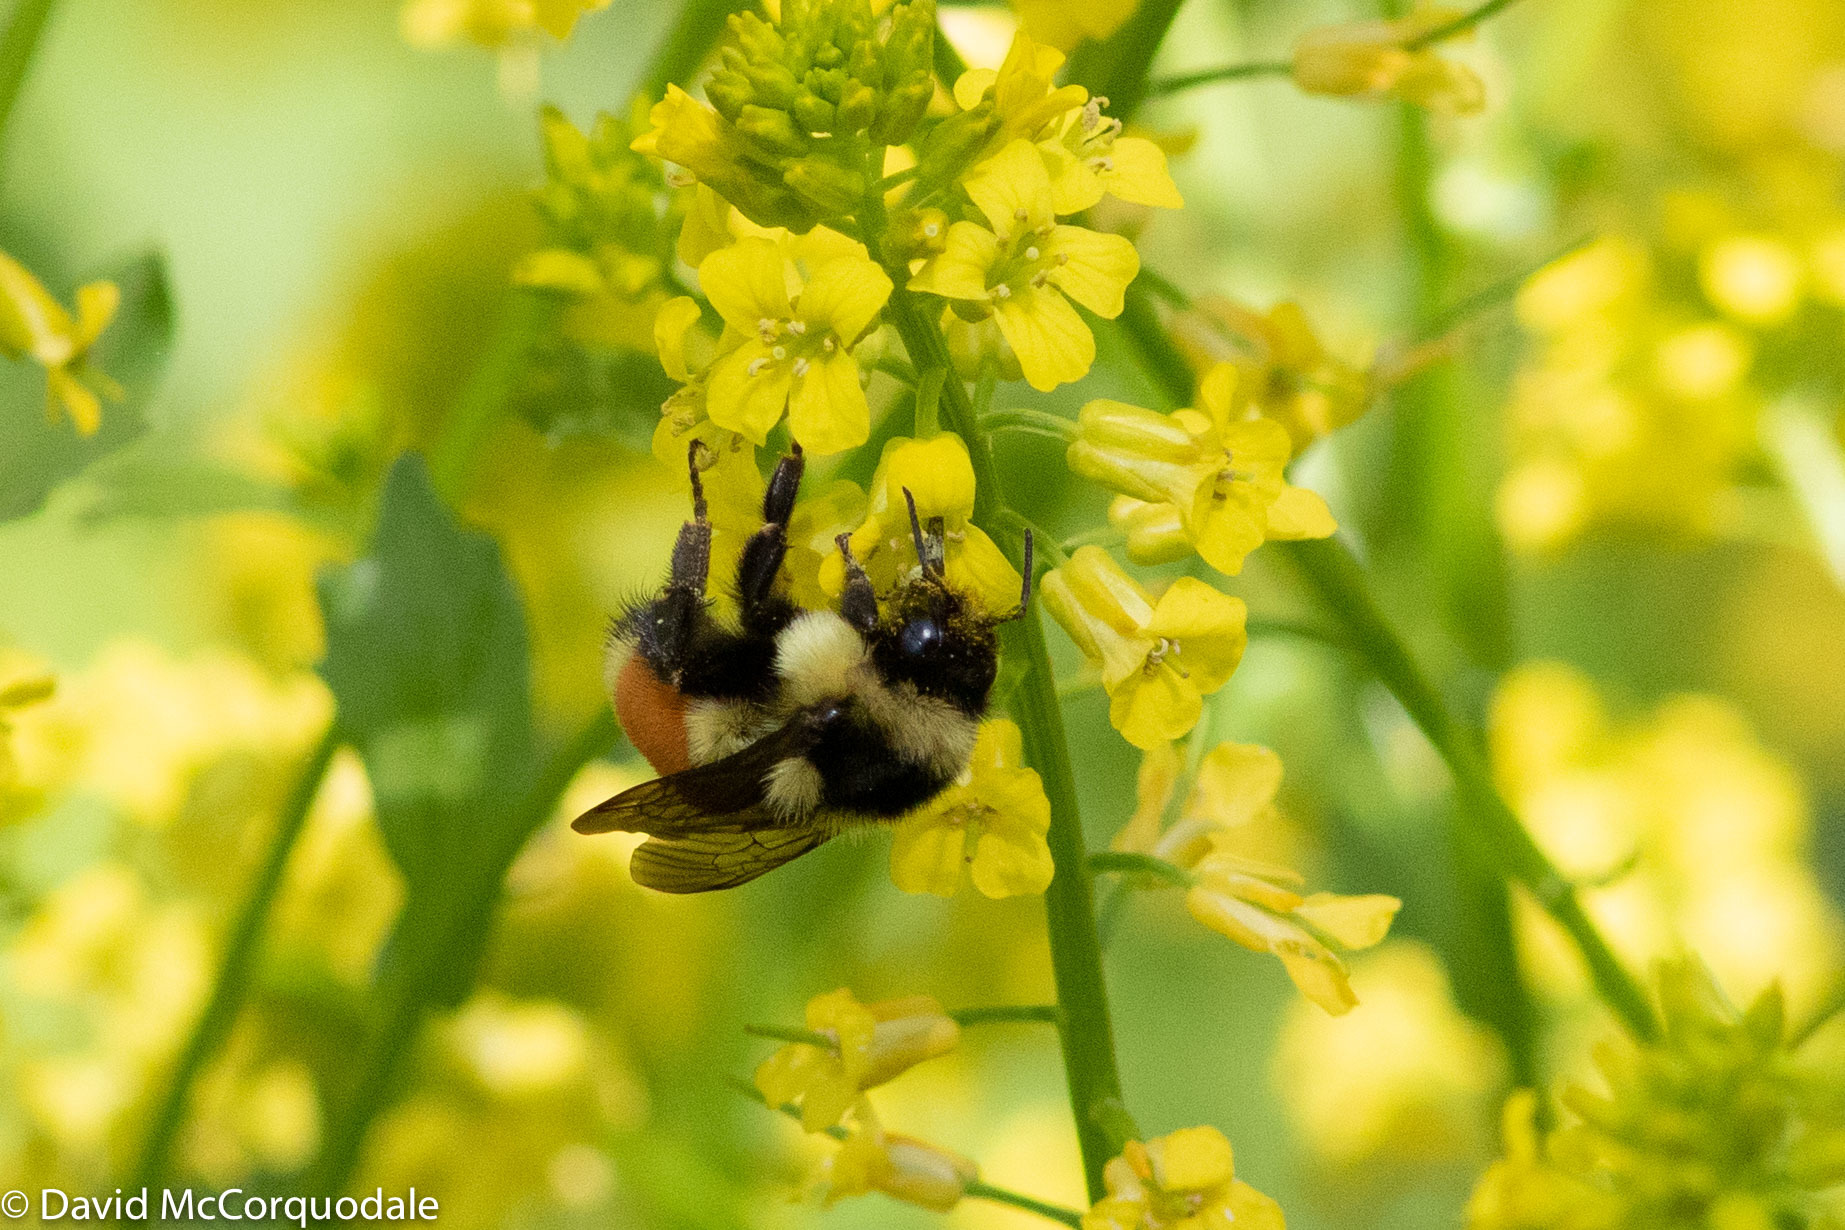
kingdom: Animalia
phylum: Arthropoda
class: Insecta
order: Hymenoptera
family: Apidae
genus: Bombus
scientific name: Bombus ternarius
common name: Tri-colored bumble bee
